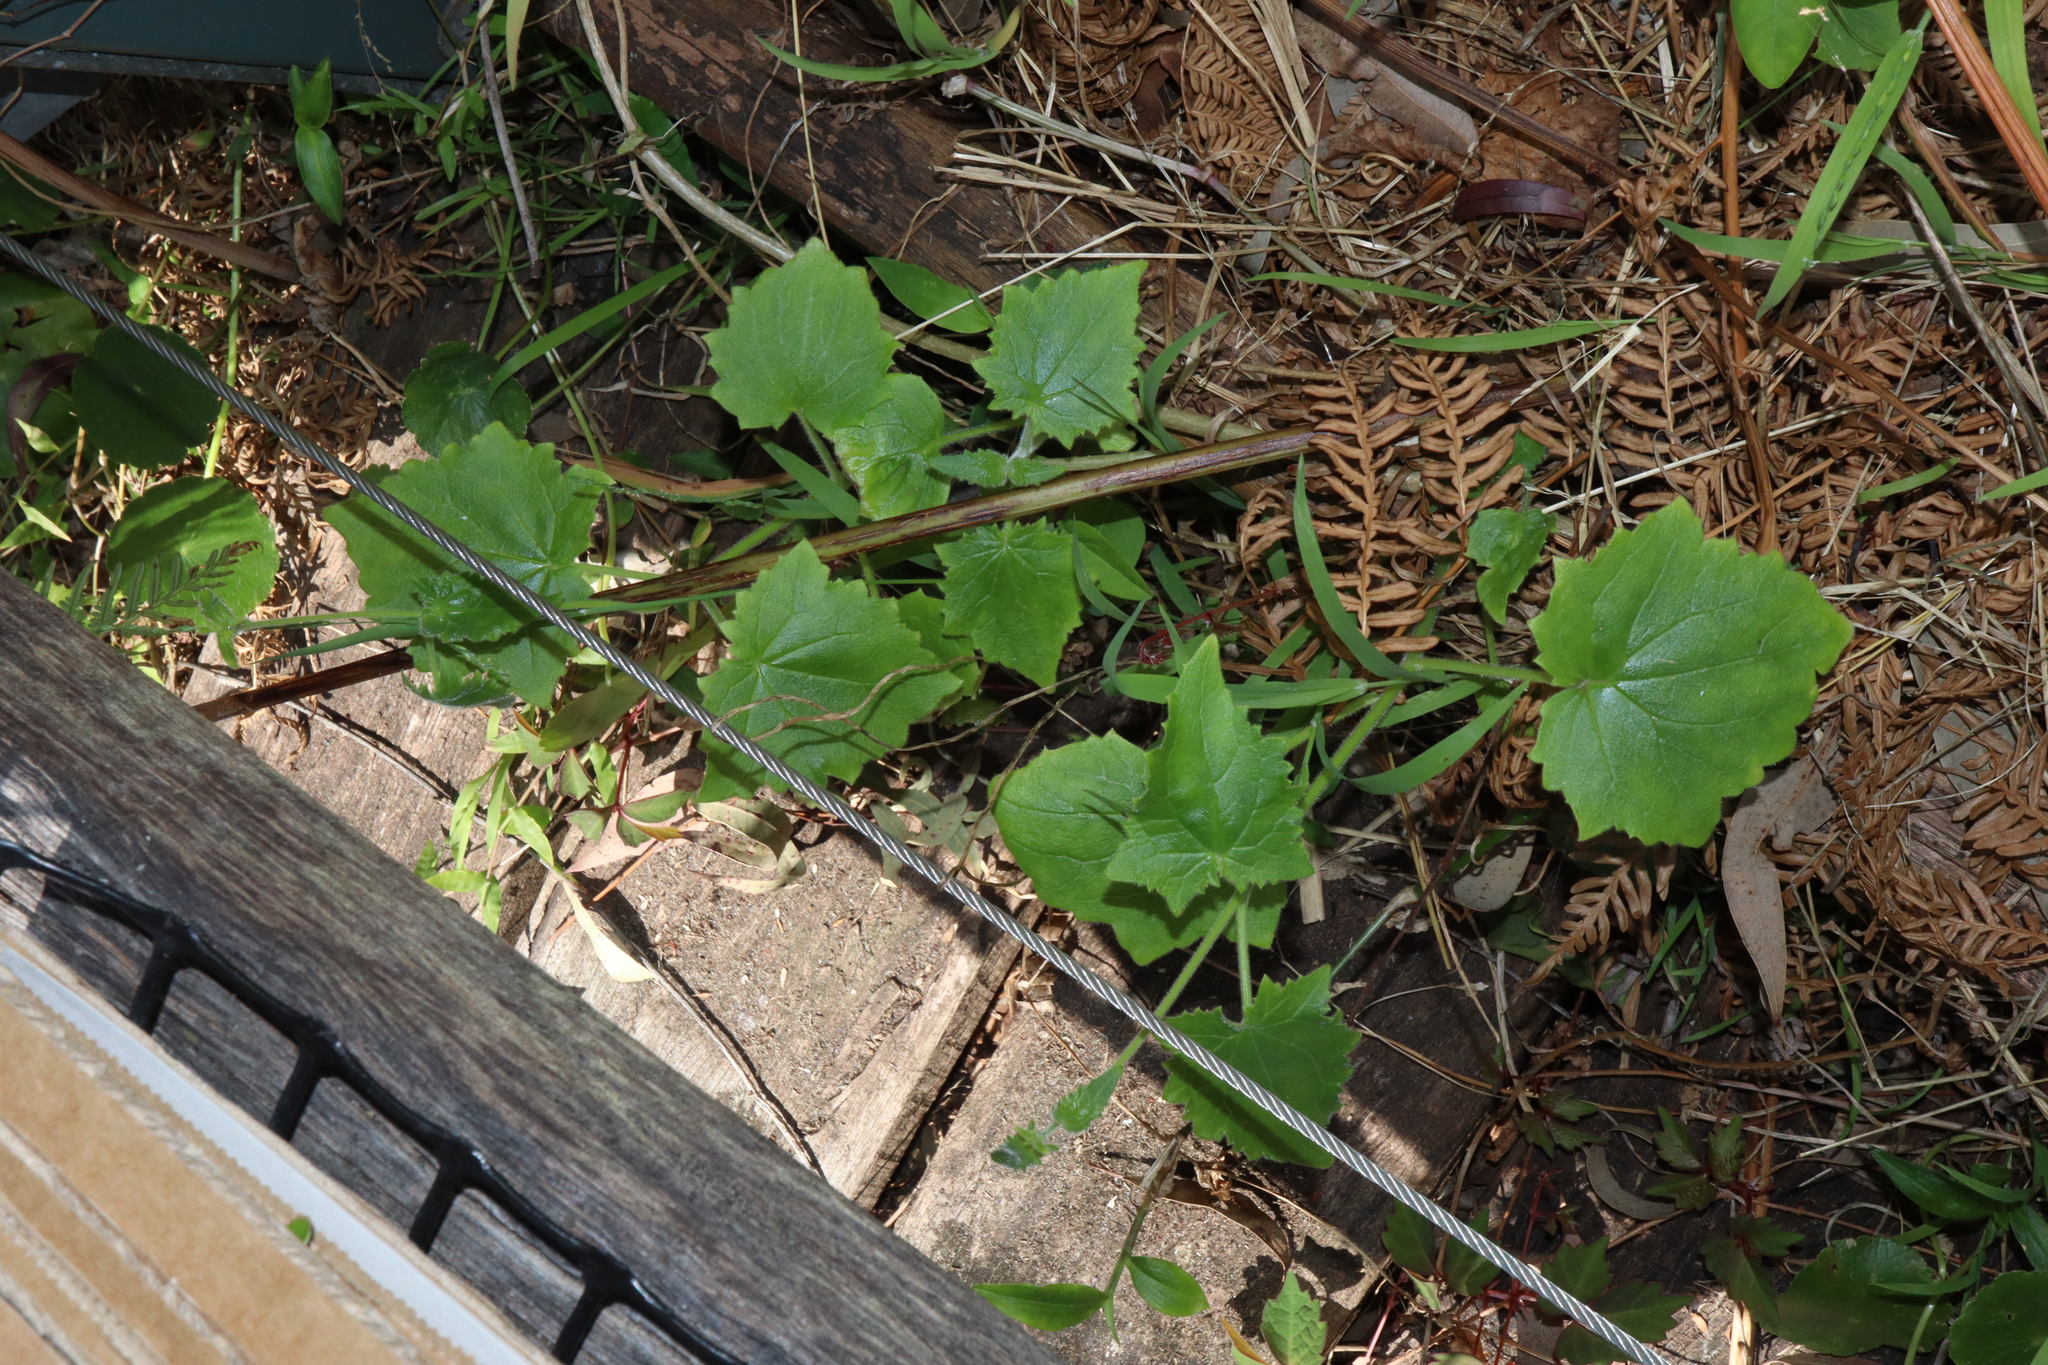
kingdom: Plantae
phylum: Tracheophyta
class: Magnoliopsida
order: Lamiales
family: Plantaginaceae
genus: Lophospermum
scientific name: Lophospermum erubescens
